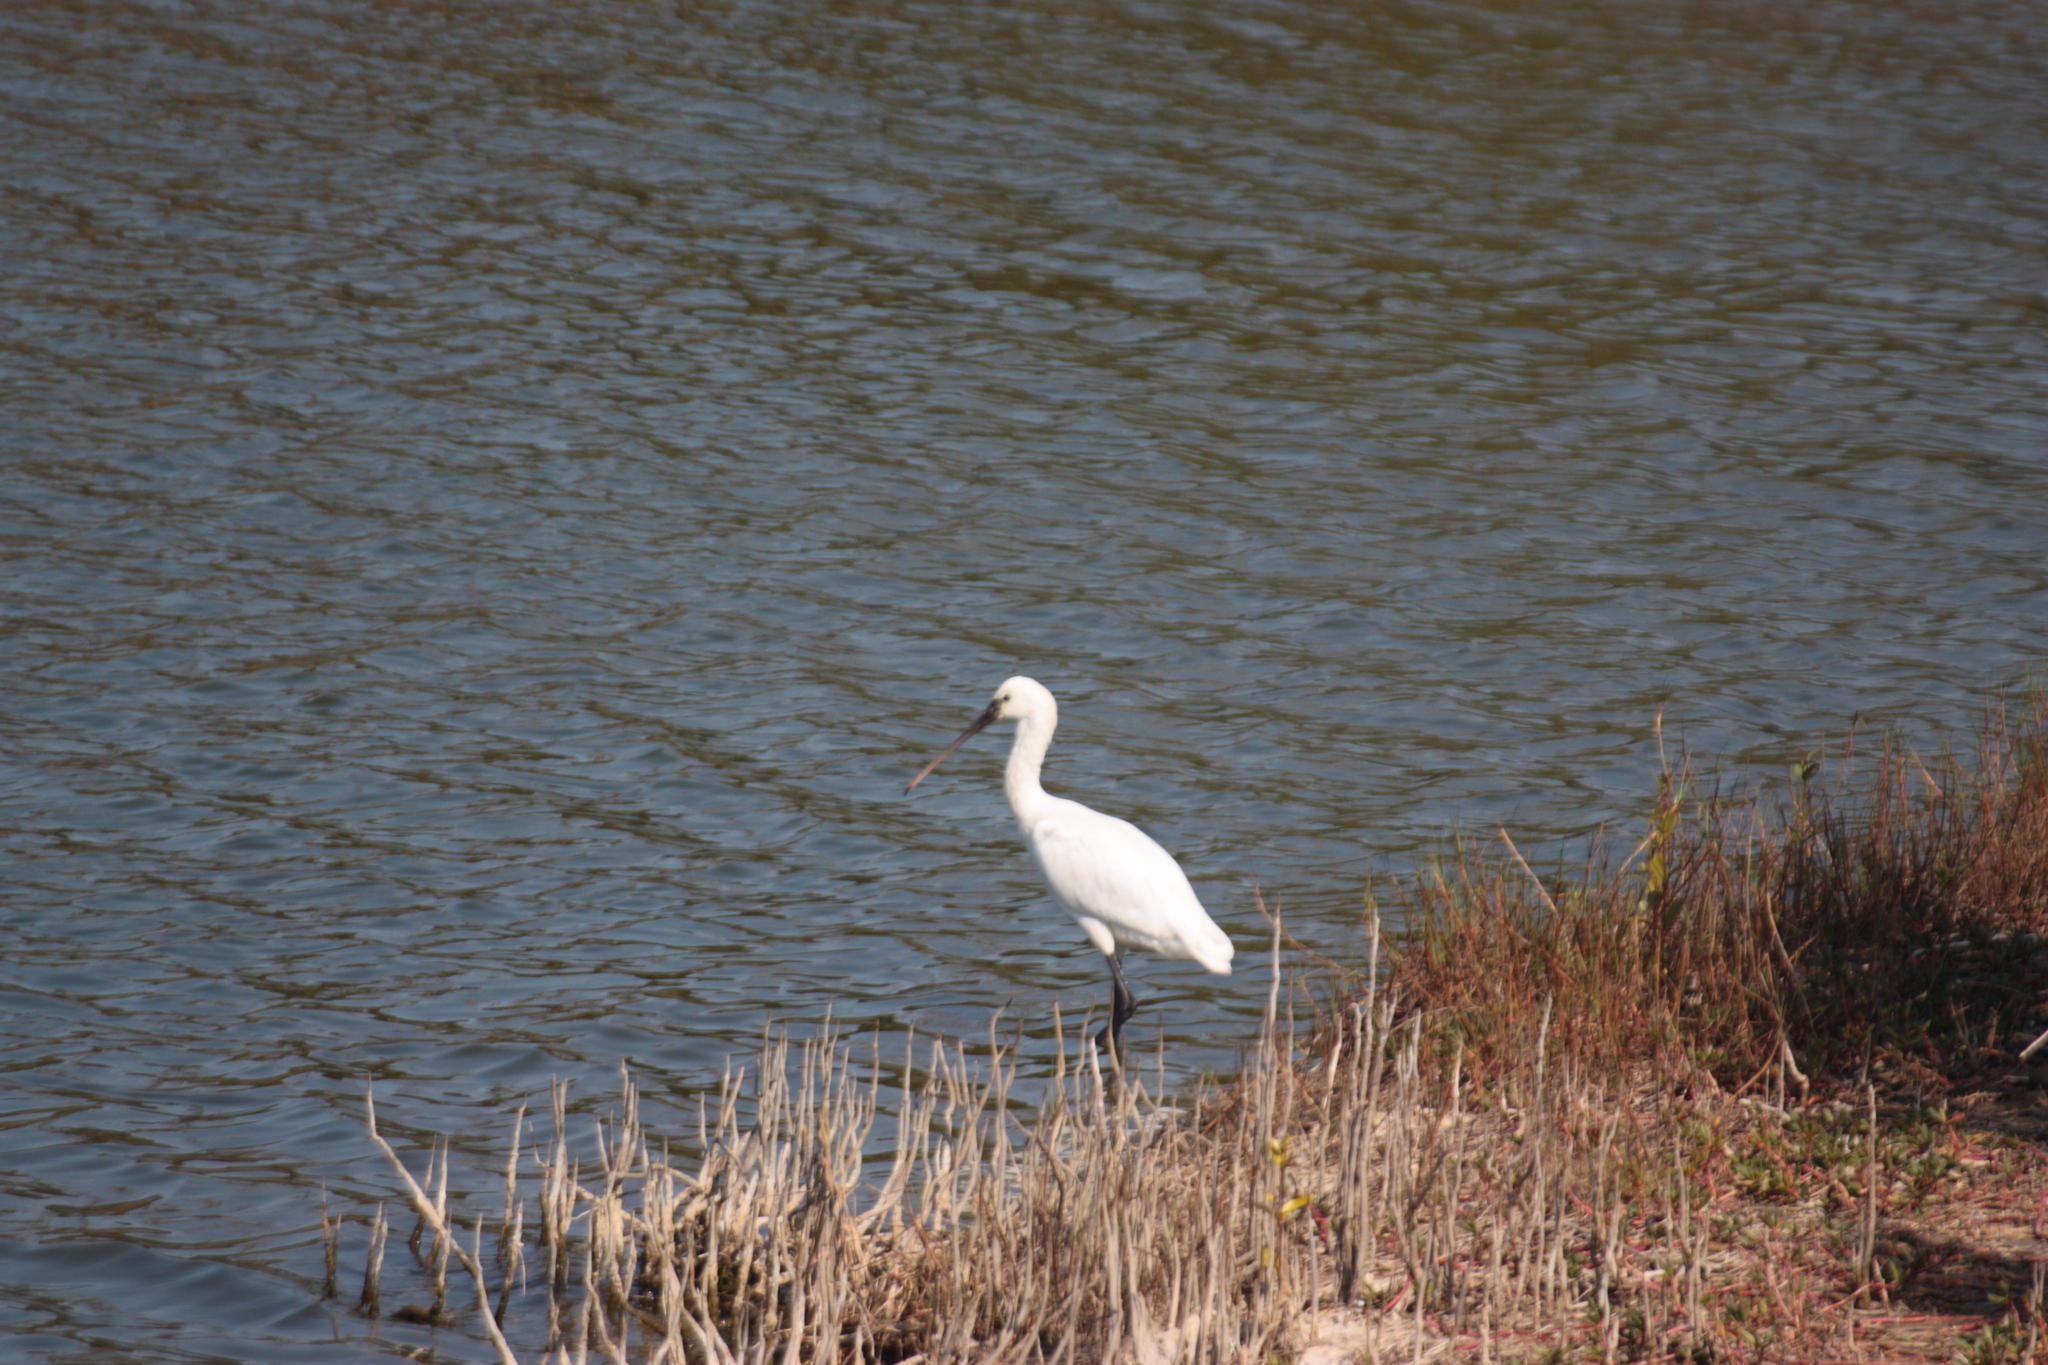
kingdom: Animalia
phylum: Chordata
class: Aves
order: Pelecaniformes
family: Threskiornithidae
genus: Platalea
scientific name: Platalea leucorodia
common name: Eurasian spoonbill
